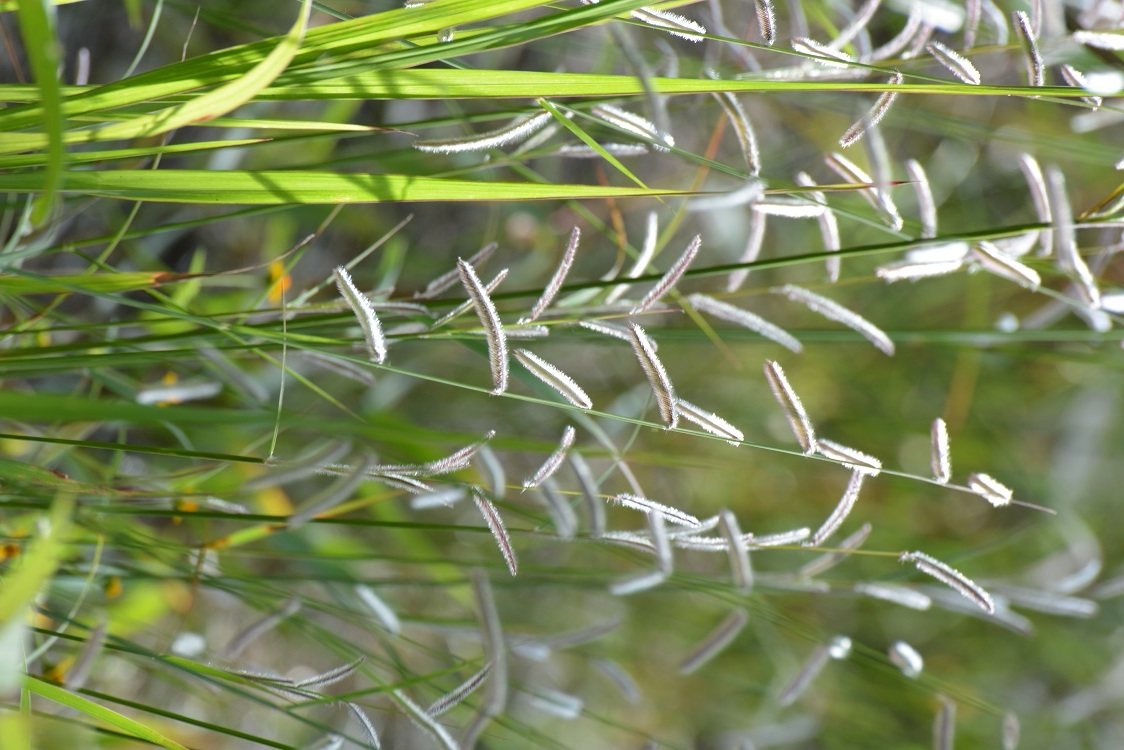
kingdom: Plantae
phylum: Tracheophyta
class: Liliopsida
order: Poales
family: Poaceae
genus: Bouteloua
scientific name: Bouteloua elata
